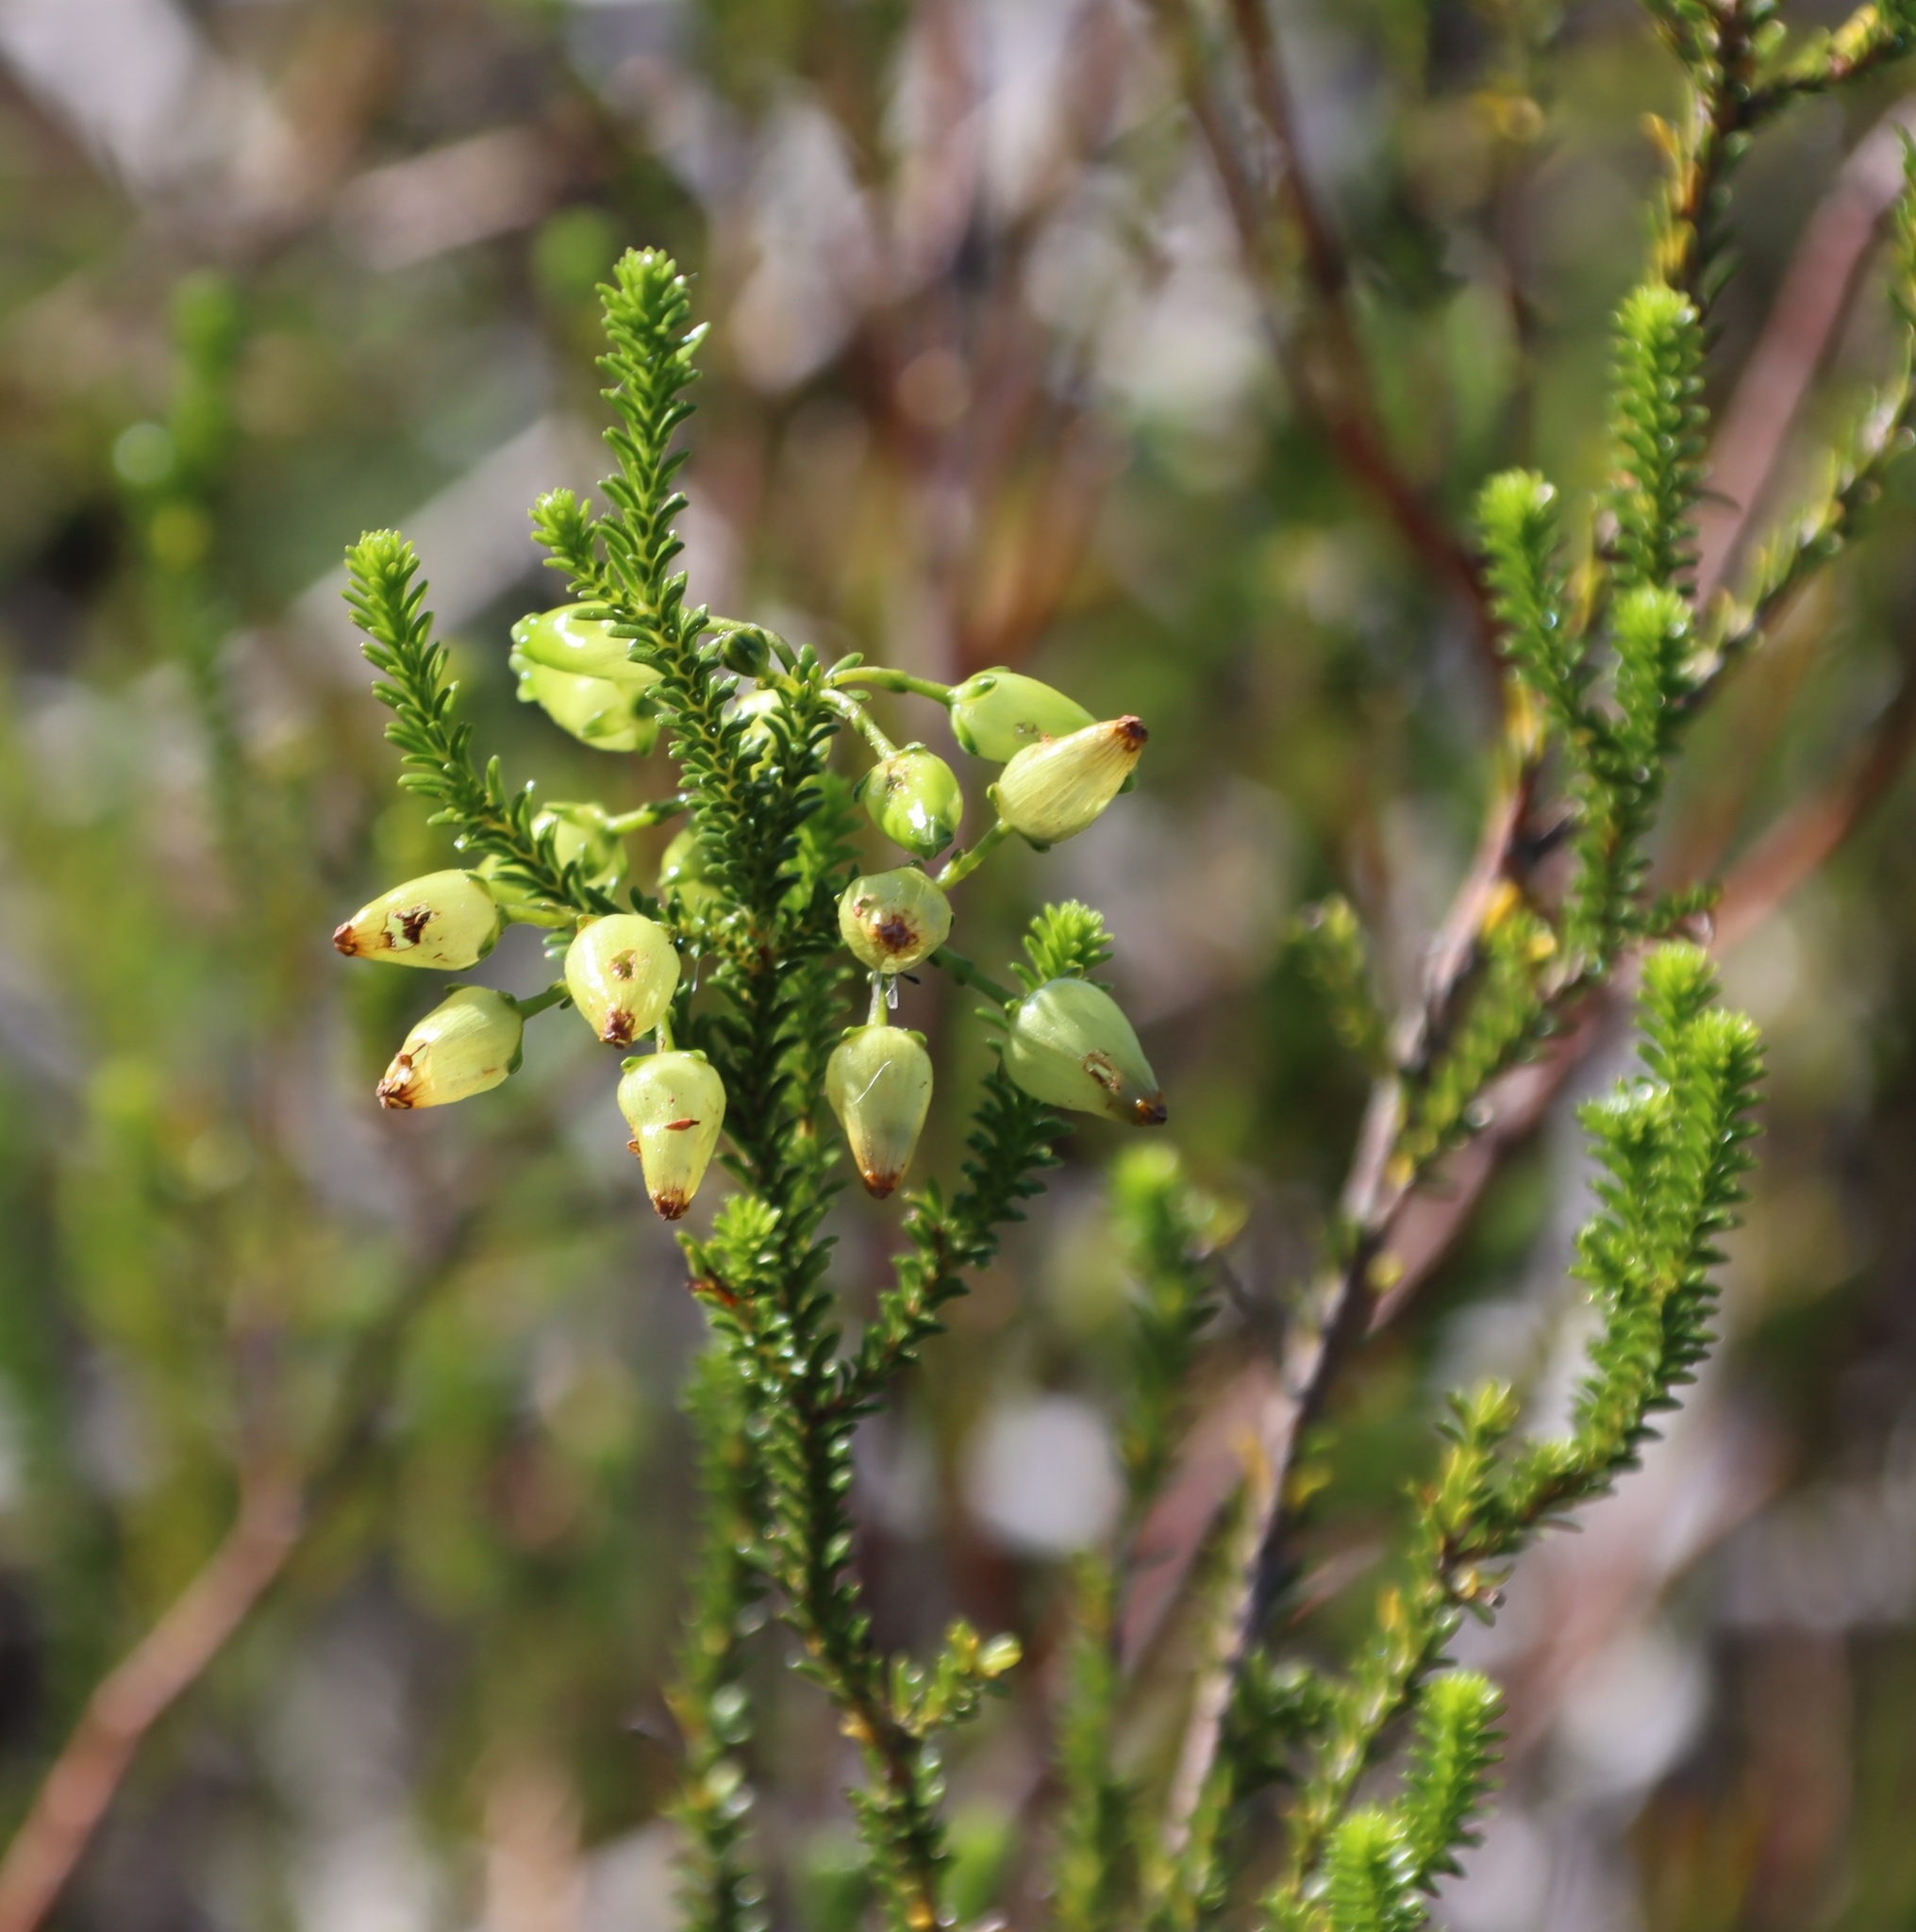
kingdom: Plantae
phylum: Tracheophyta
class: Magnoliopsida
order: Ericales
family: Ericaceae
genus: Erica
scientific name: Erica urna-viridis
